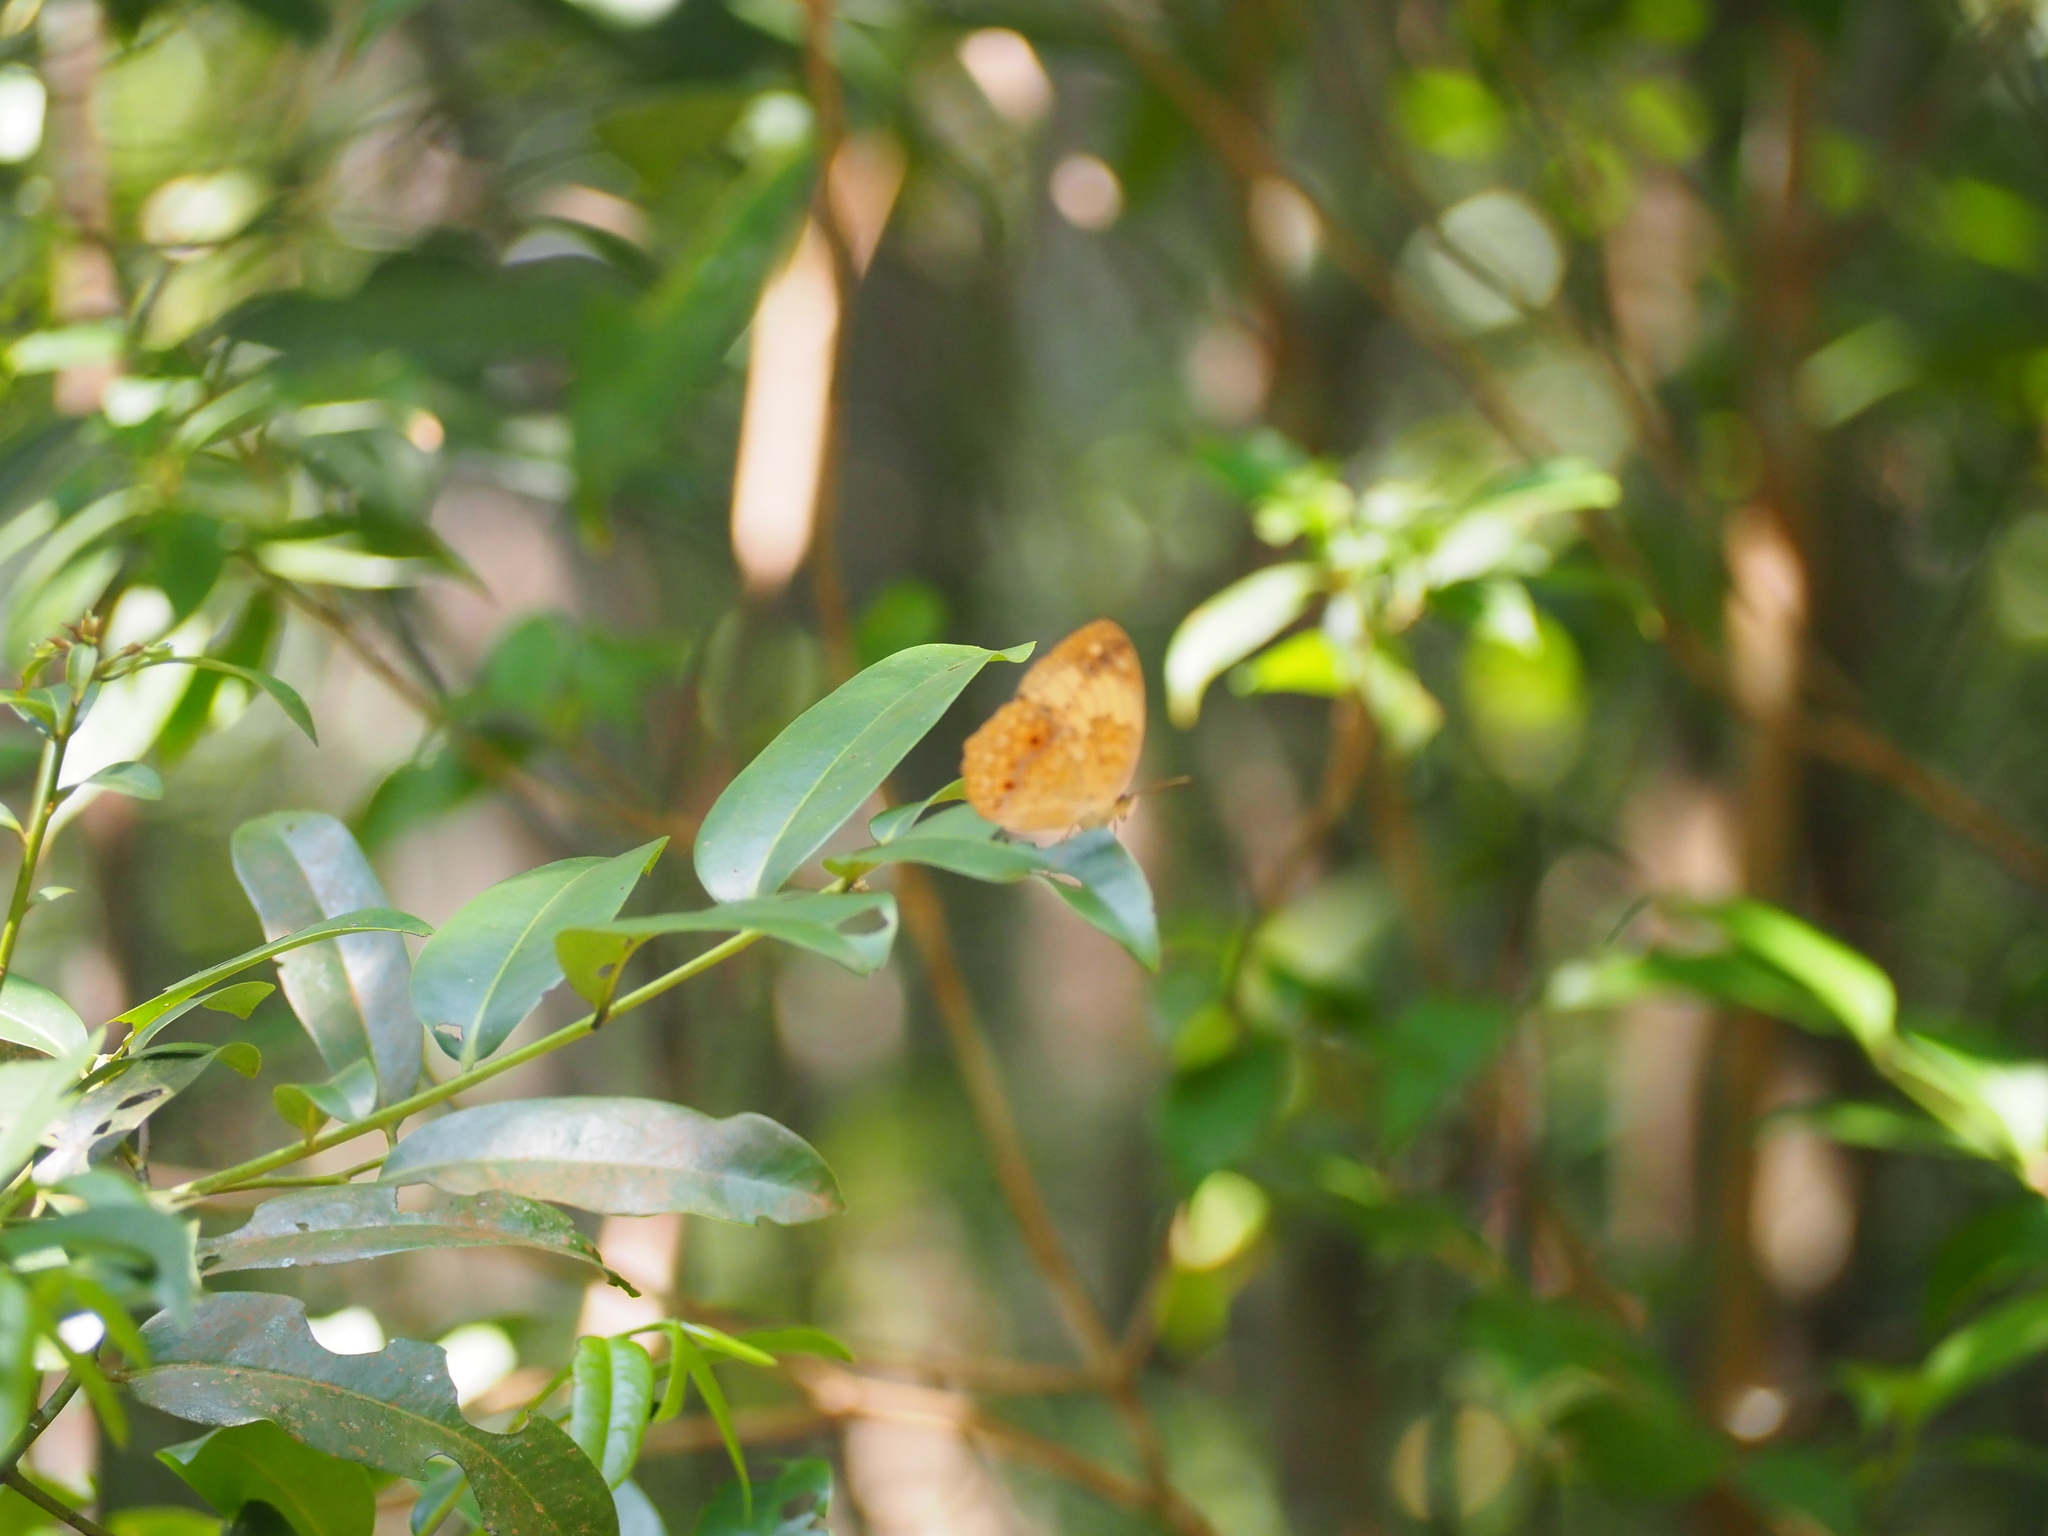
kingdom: Animalia
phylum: Arthropoda
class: Insecta
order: Lepidoptera
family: Nymphalidae
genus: Cupha
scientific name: Cupha erymanthis
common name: Rustic
